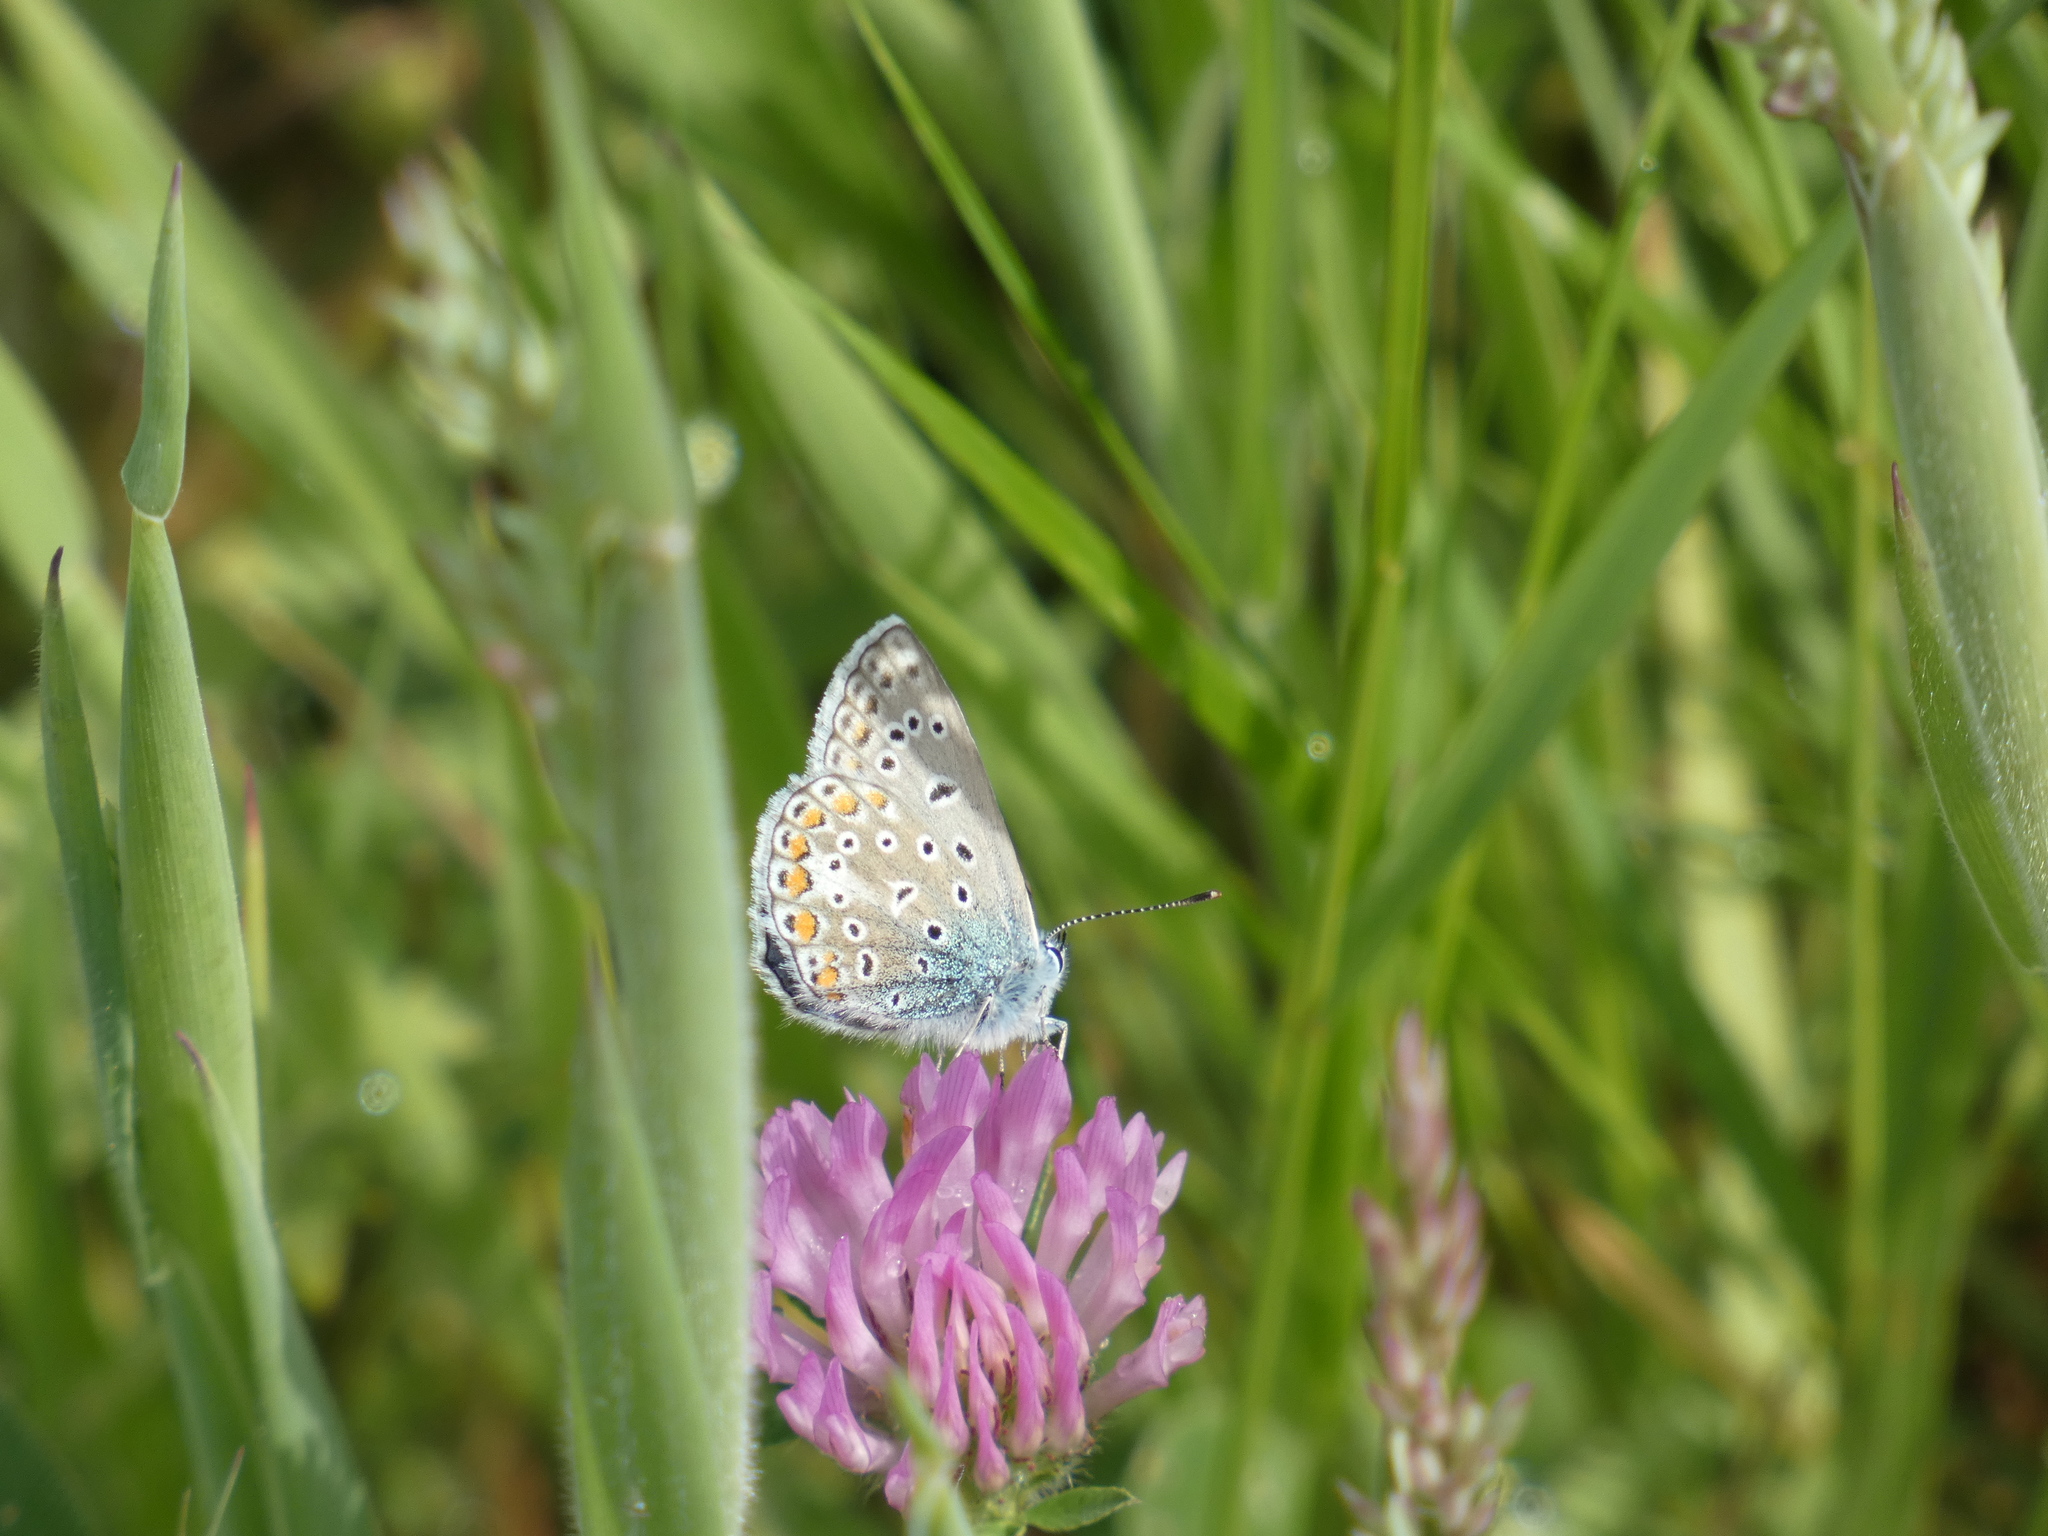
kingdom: Animalia
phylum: Arthropoda
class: Insecta
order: Lepidoptera
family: Lycaenidae
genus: Polyommatus
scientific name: Polyommatus icarus
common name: Common blue
